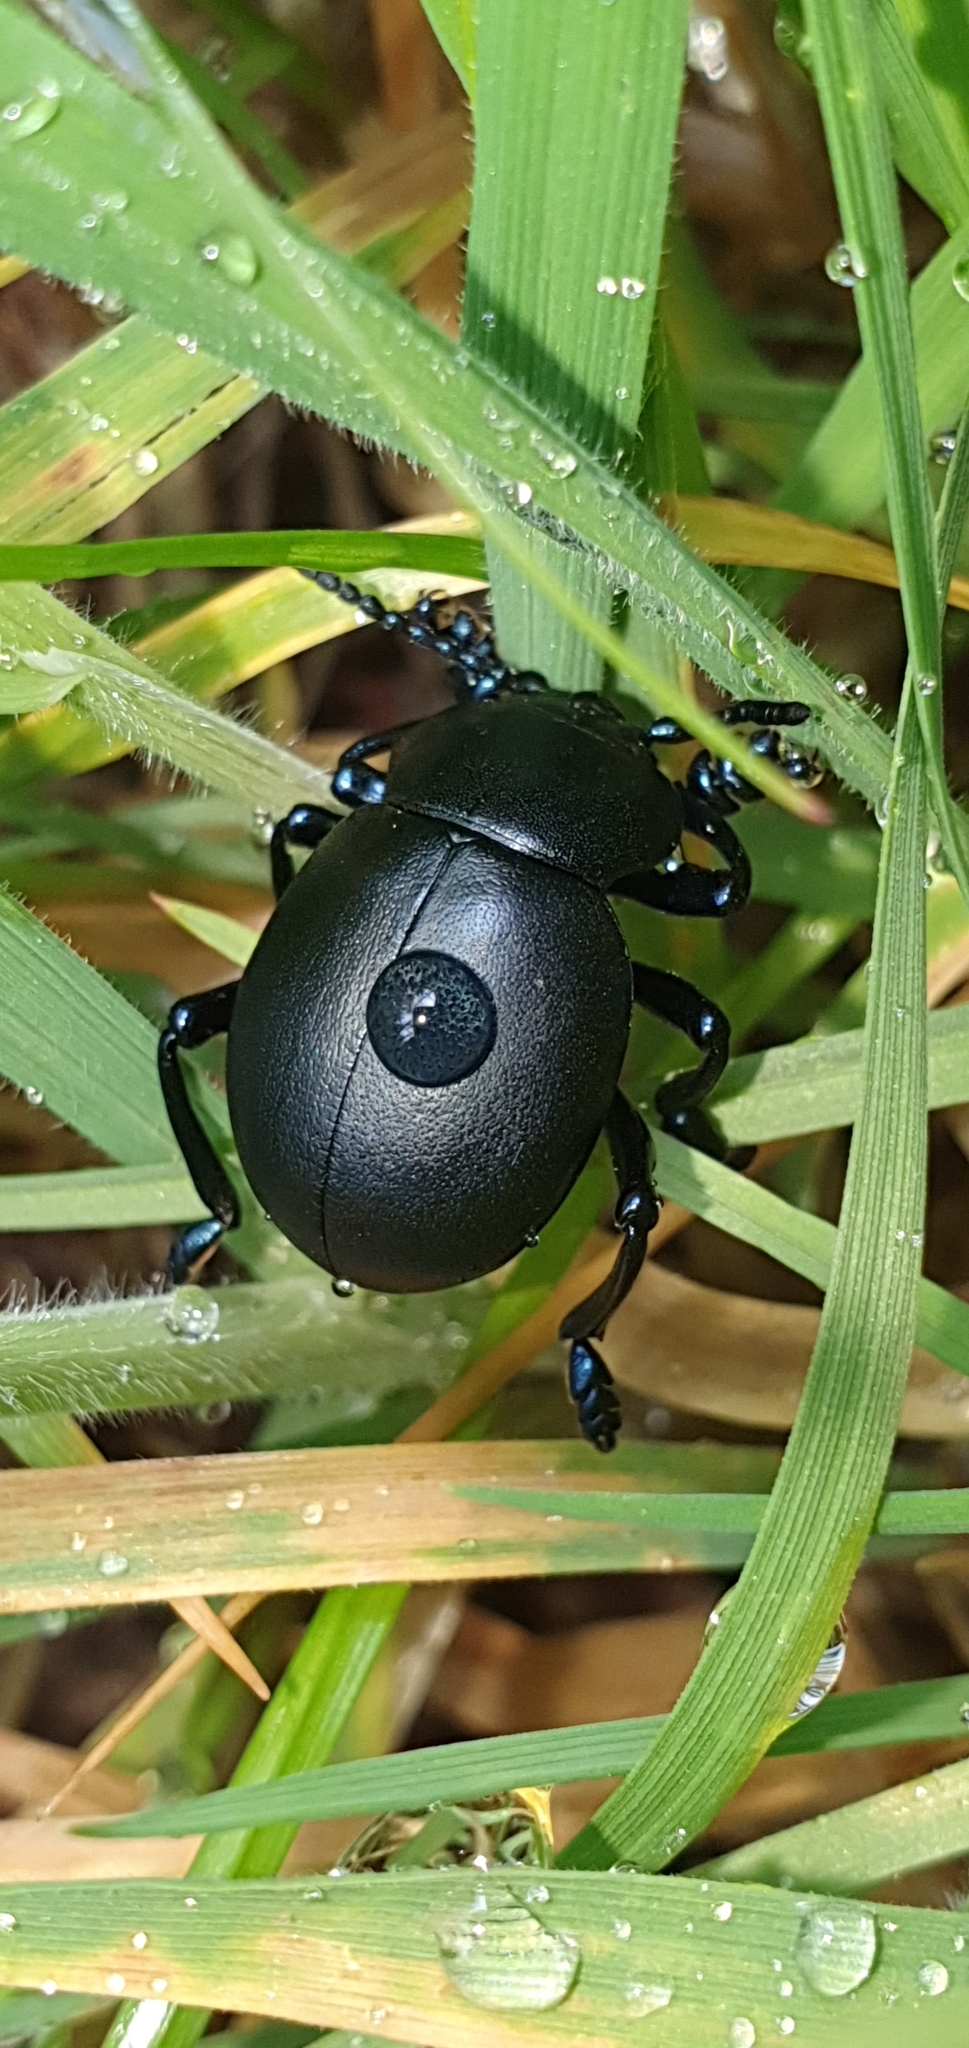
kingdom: Animalia
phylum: Arthropoda
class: Insecta
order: Coleoptera
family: Chrysomelidae
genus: Timarcha
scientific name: Timarcha tenebricosa
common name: Bloody-nosed beetle
